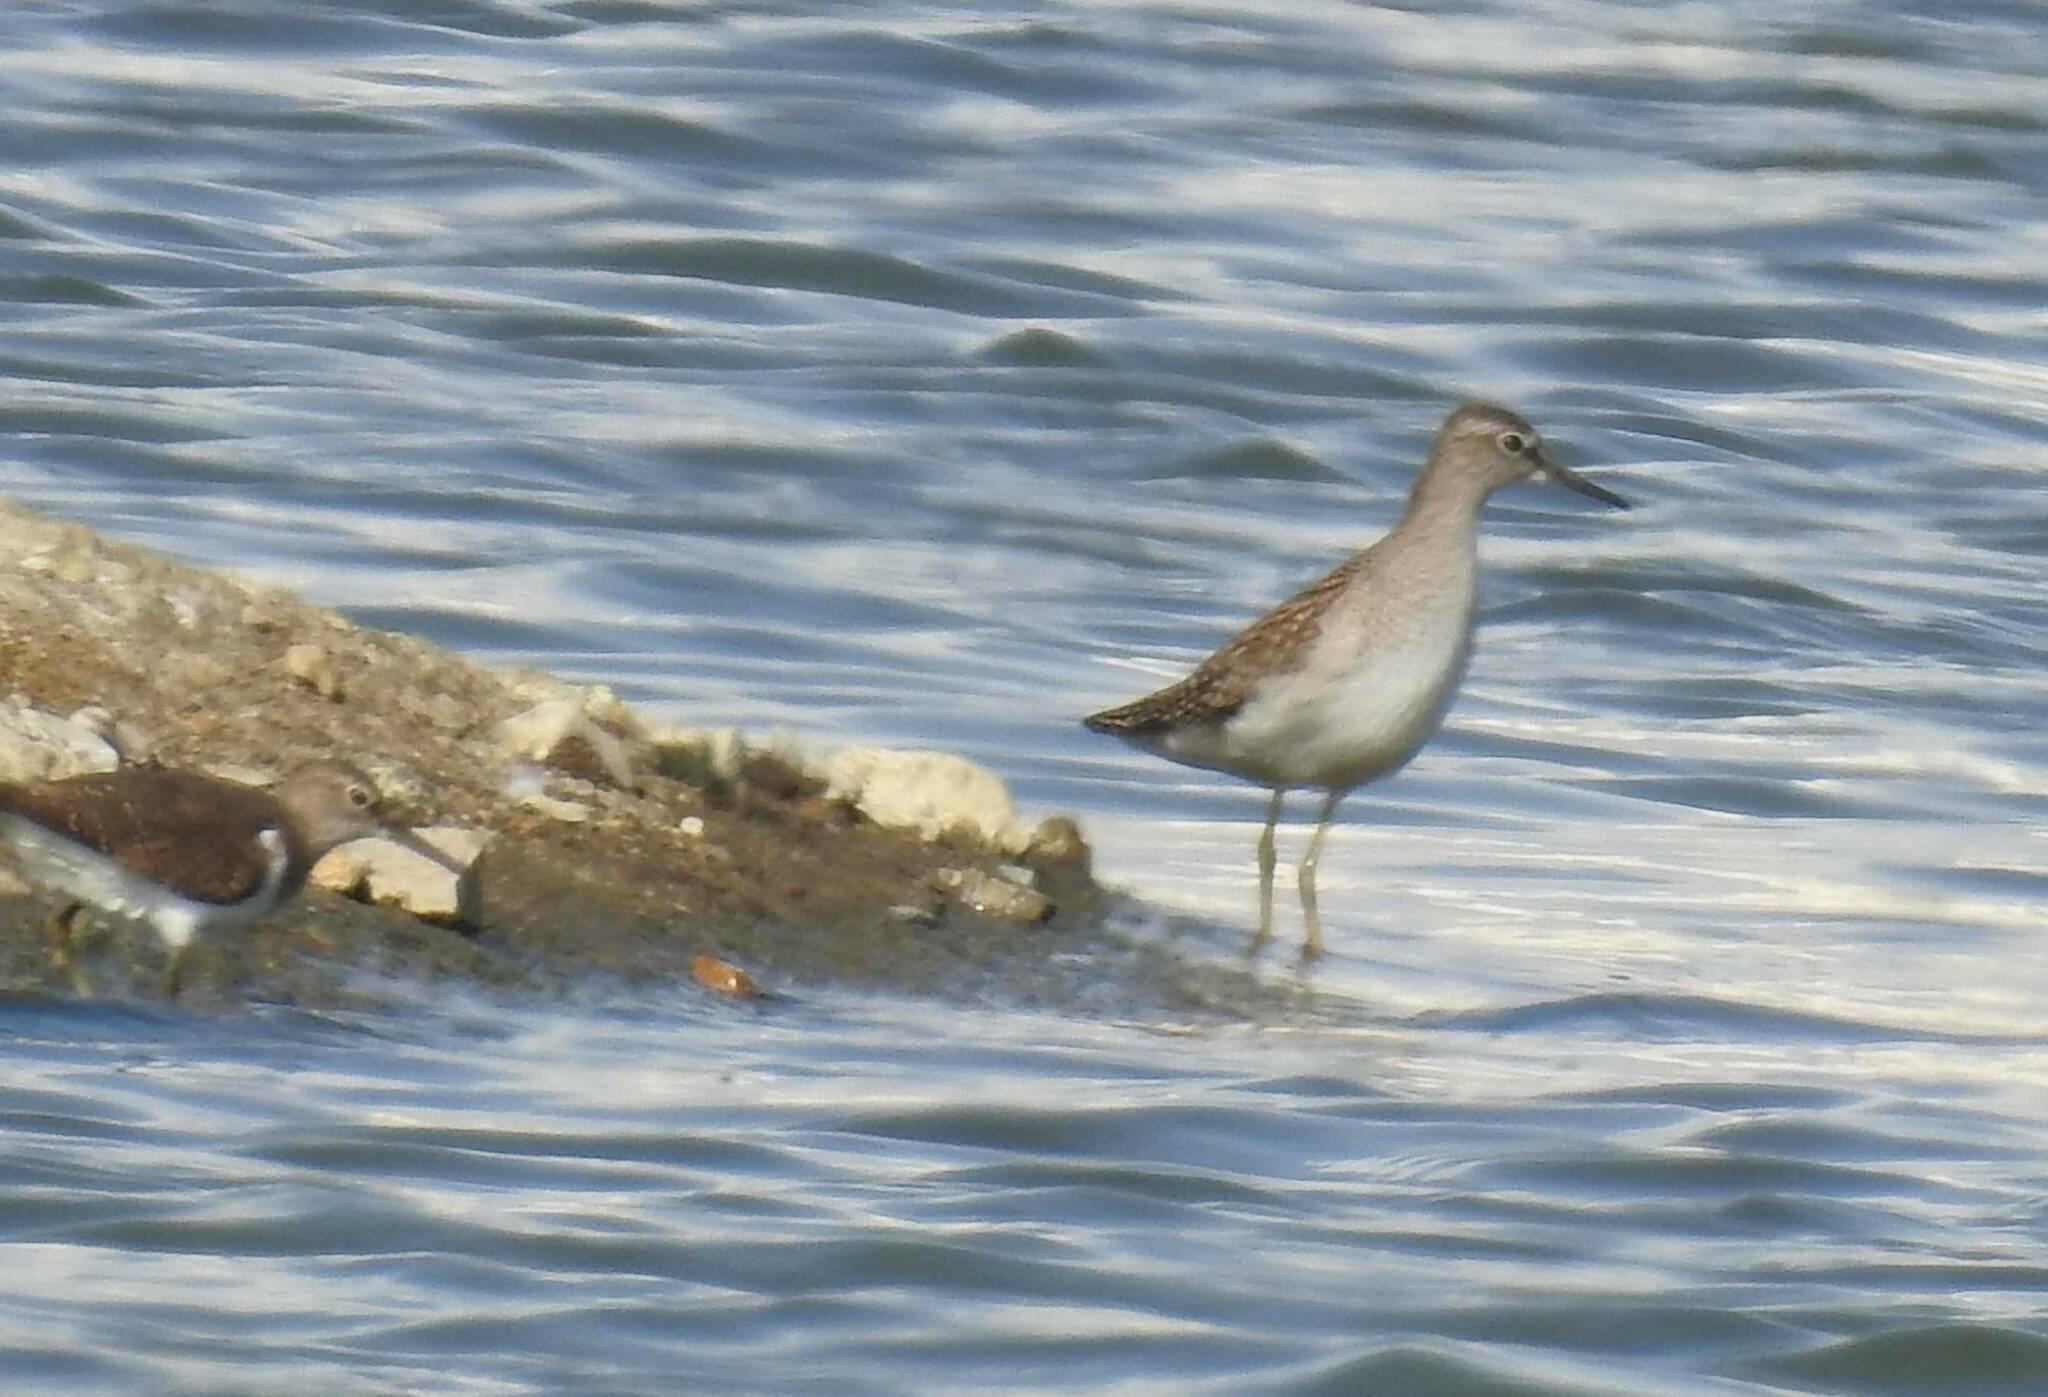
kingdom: Animalia
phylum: Chordata
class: Aves
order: Charadriiformes
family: Scolopacidae
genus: Tringa
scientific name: Tringa glareola
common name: Wood sandpiper
